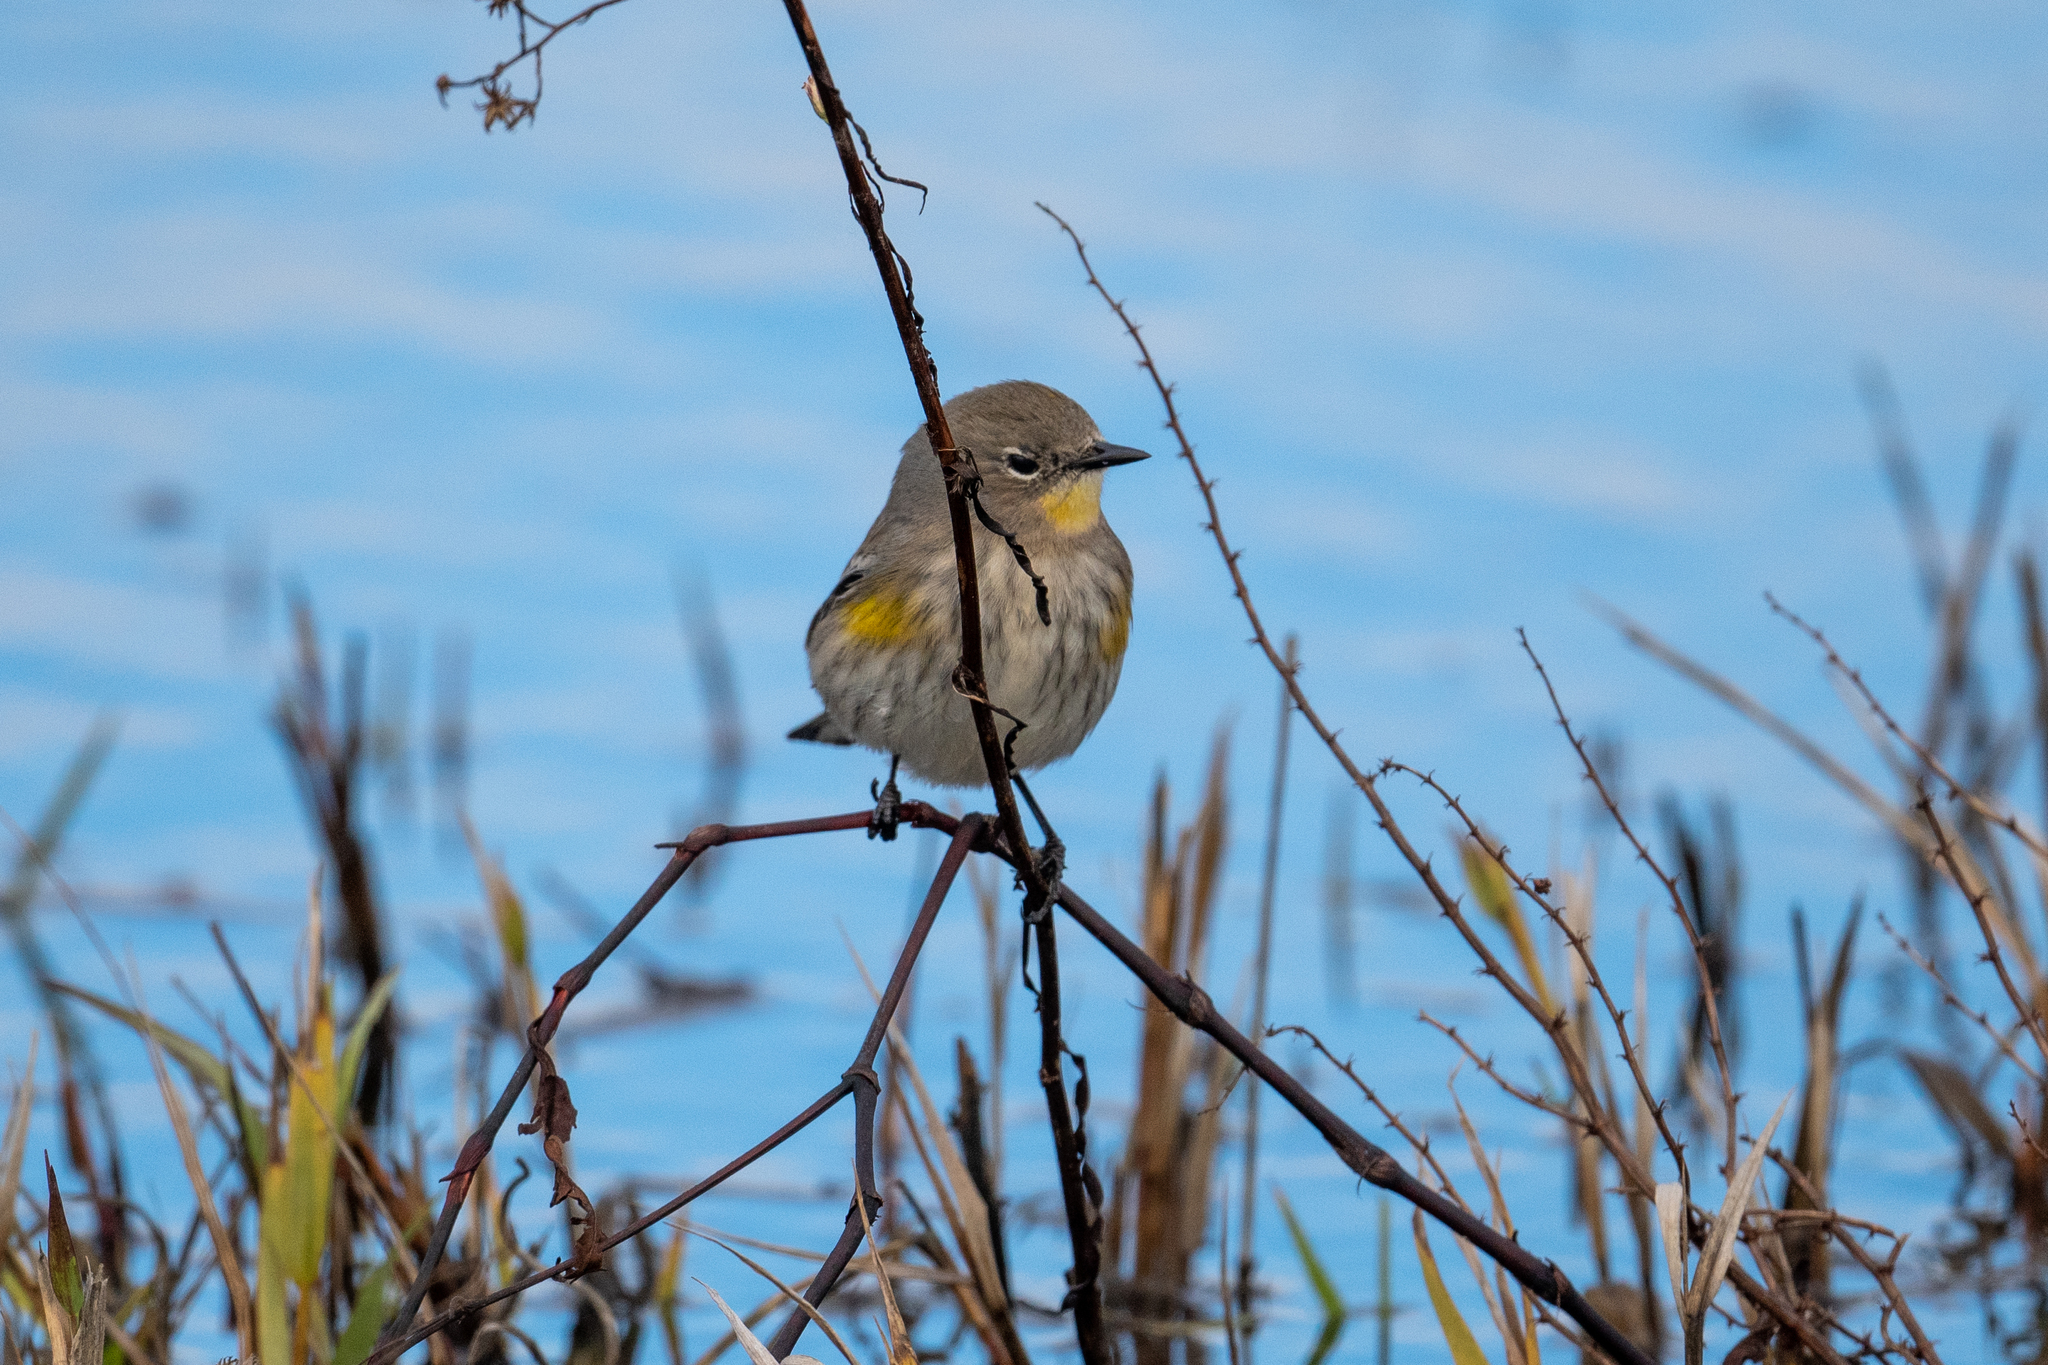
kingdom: Animalia
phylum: Chordata
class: Aves
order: Passeriformes
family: Parulidae
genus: Setophaga
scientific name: Setophaga coronata
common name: Myrtle warbler
